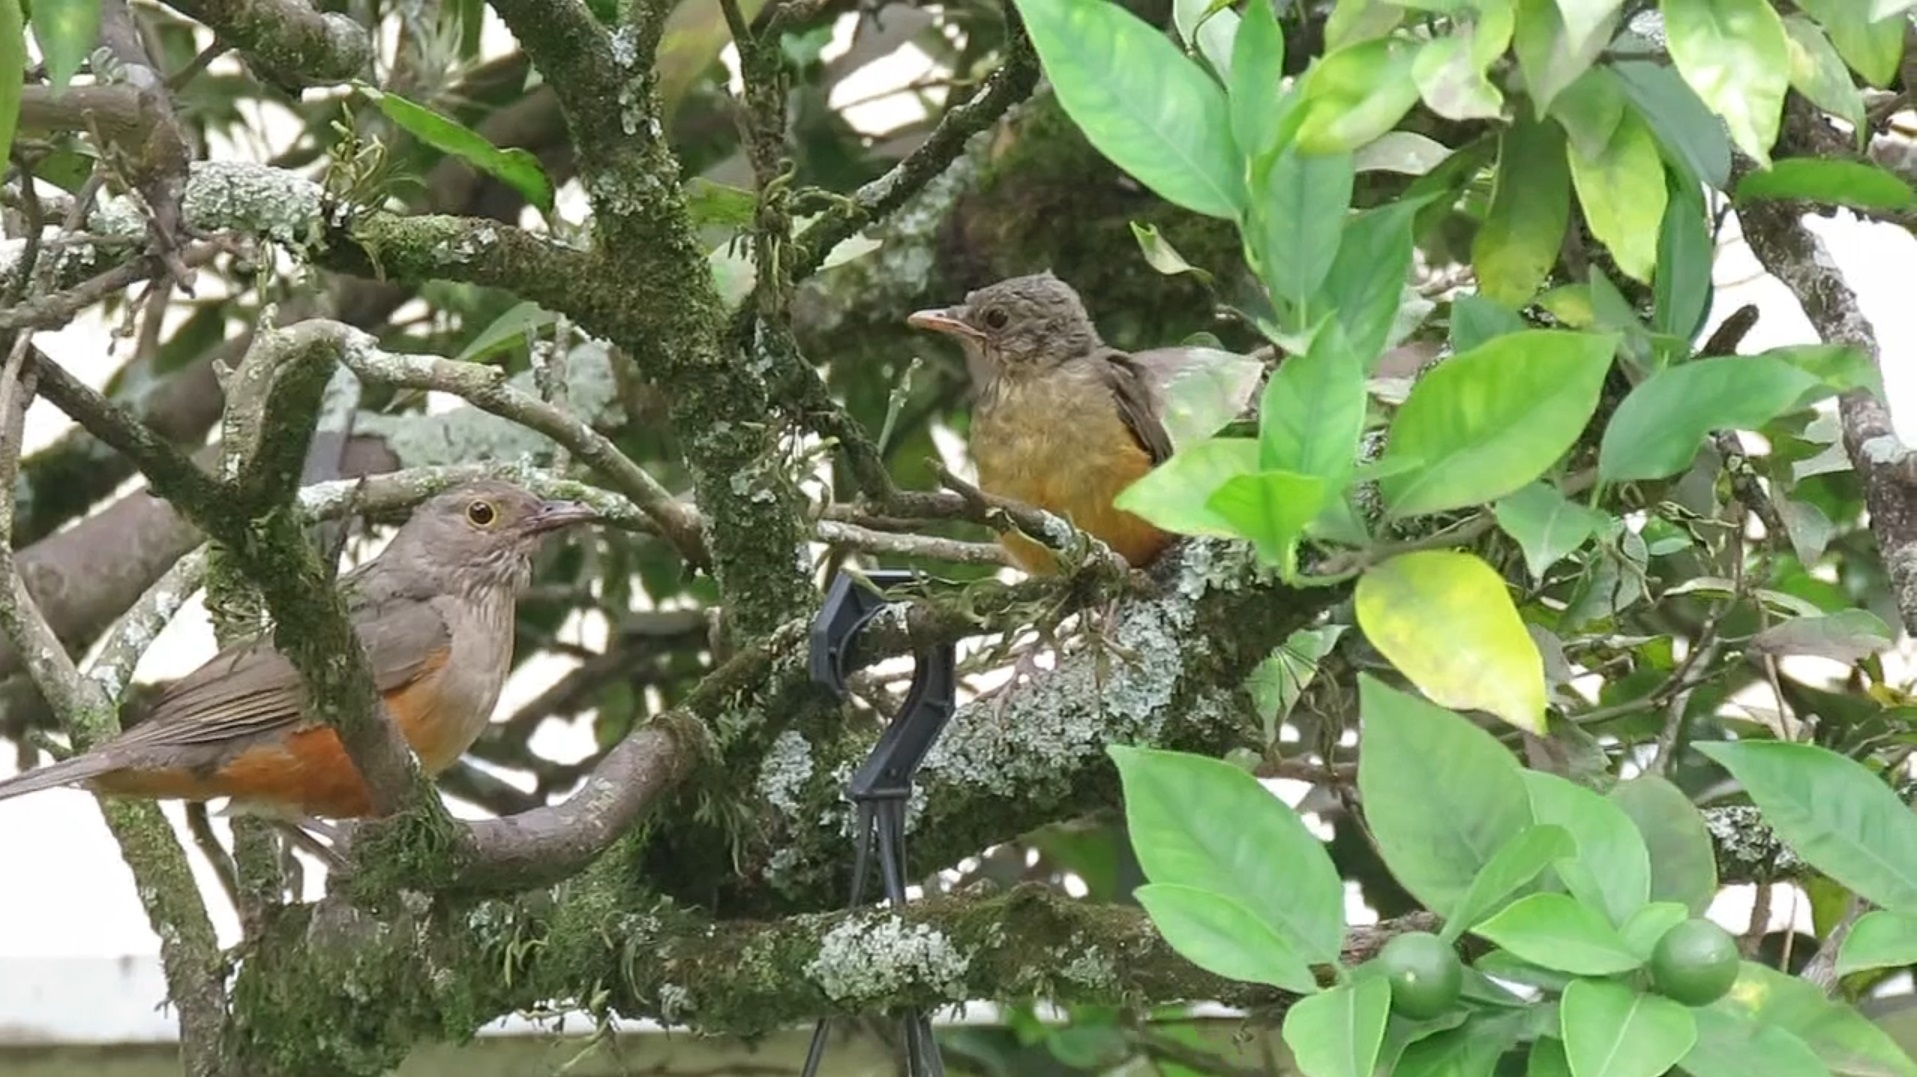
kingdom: Animalia
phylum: Chordata
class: Aves
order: Passeriformes
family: Turdidae
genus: Turdus
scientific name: Turdus rufiventris
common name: Rufous-bellied thrush
